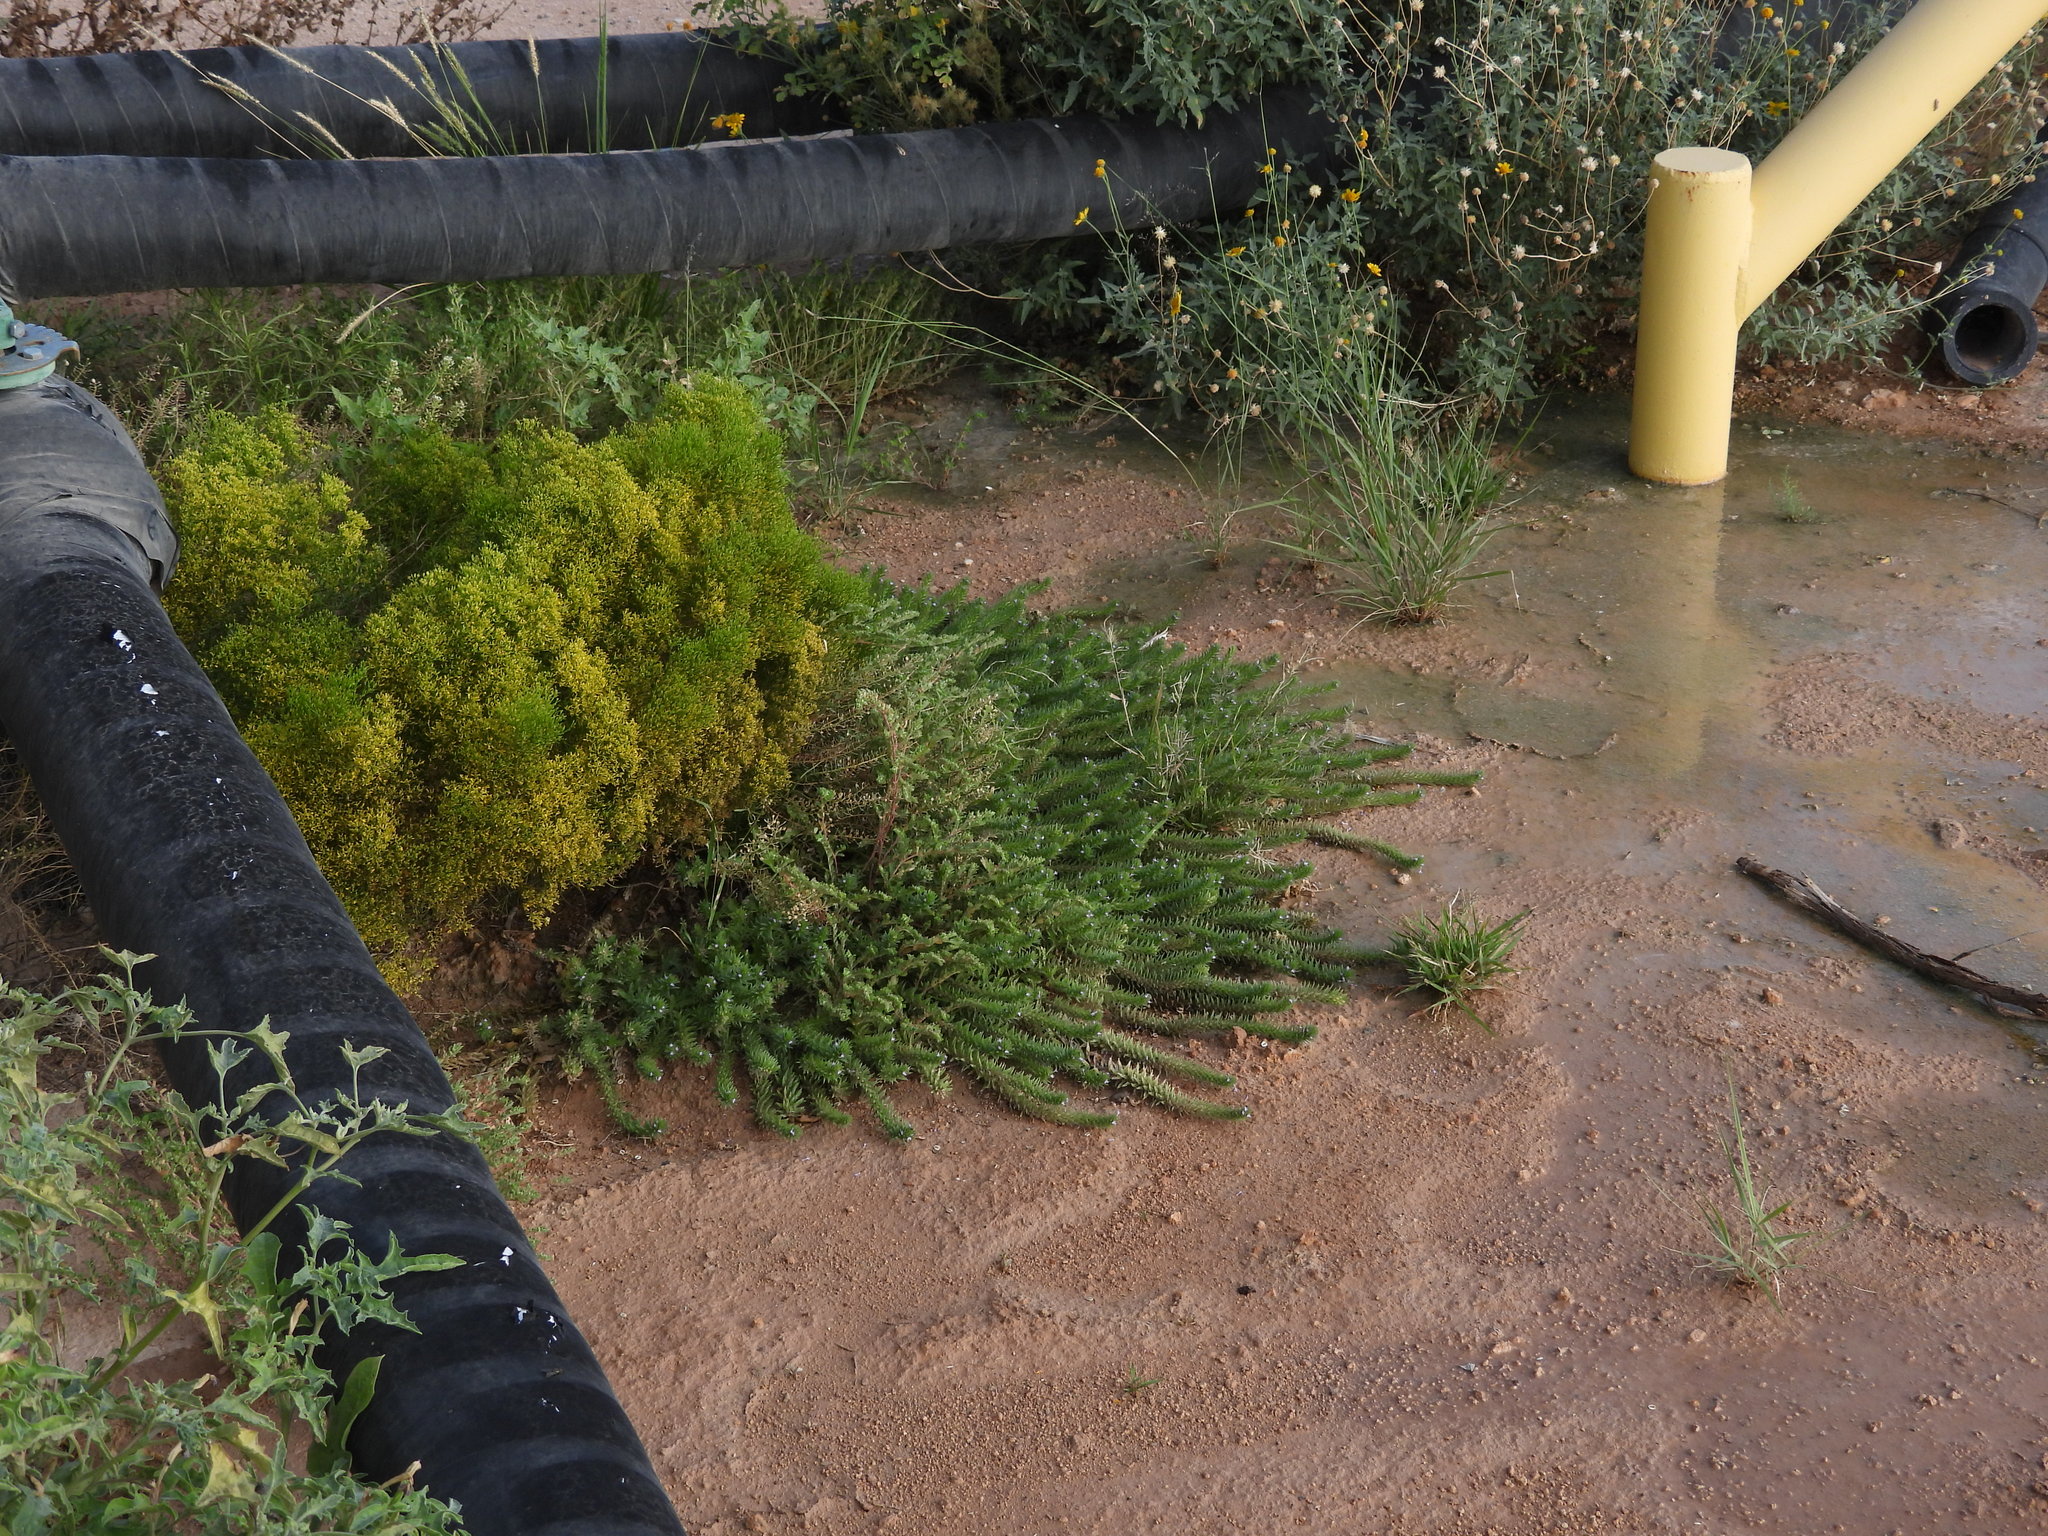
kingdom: Plantae
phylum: Tracheophyta
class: Magnoliopsida
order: Lamiales
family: Verbenaceae
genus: Verbena
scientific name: Verbena bracteata
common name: Bracted vervain
